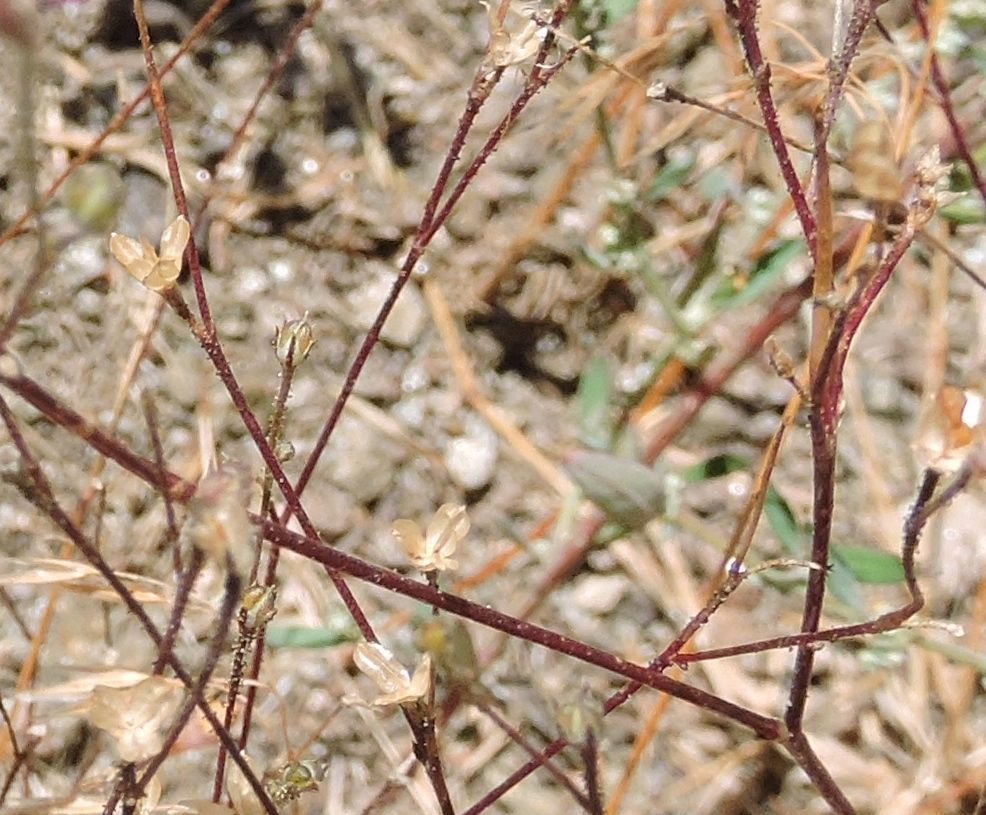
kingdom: Plantae
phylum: Tracheophyta
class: Magnoliopsida
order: Ericales
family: Polemoniaceae
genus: Saltugilia
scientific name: Saltugilia splendens
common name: Grinnell's gilia
